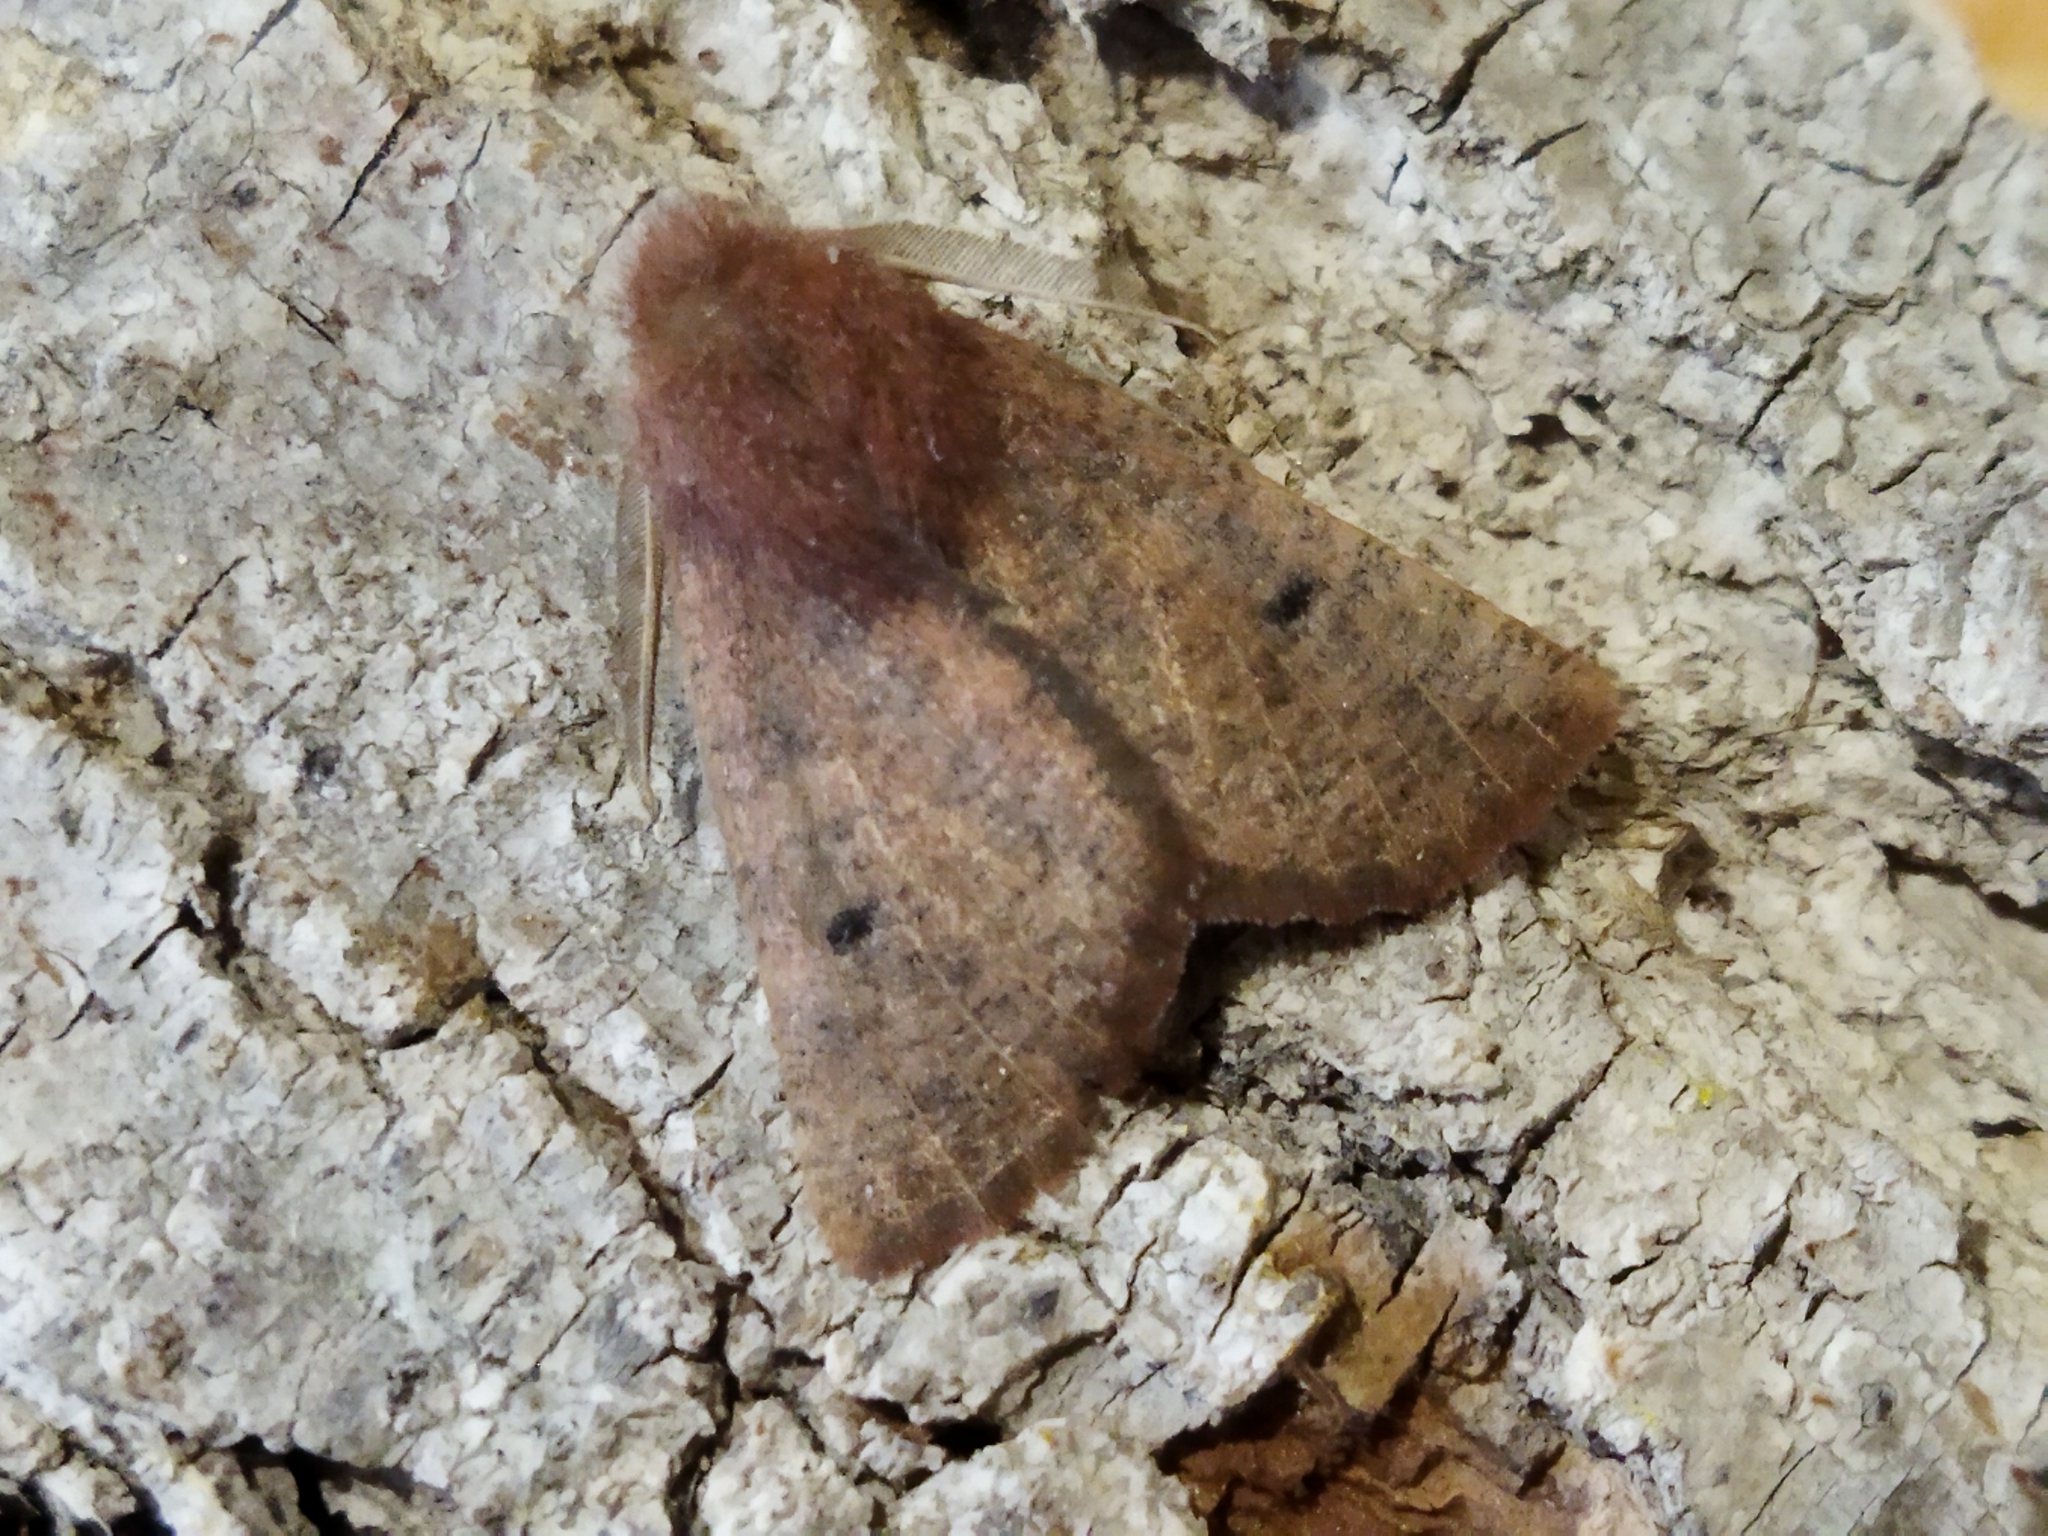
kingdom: Animalia
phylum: Arthropoda
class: Insecta
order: Lepidoptera
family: Geometridae
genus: Dasycorsa
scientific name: Dasycorsa modesta
